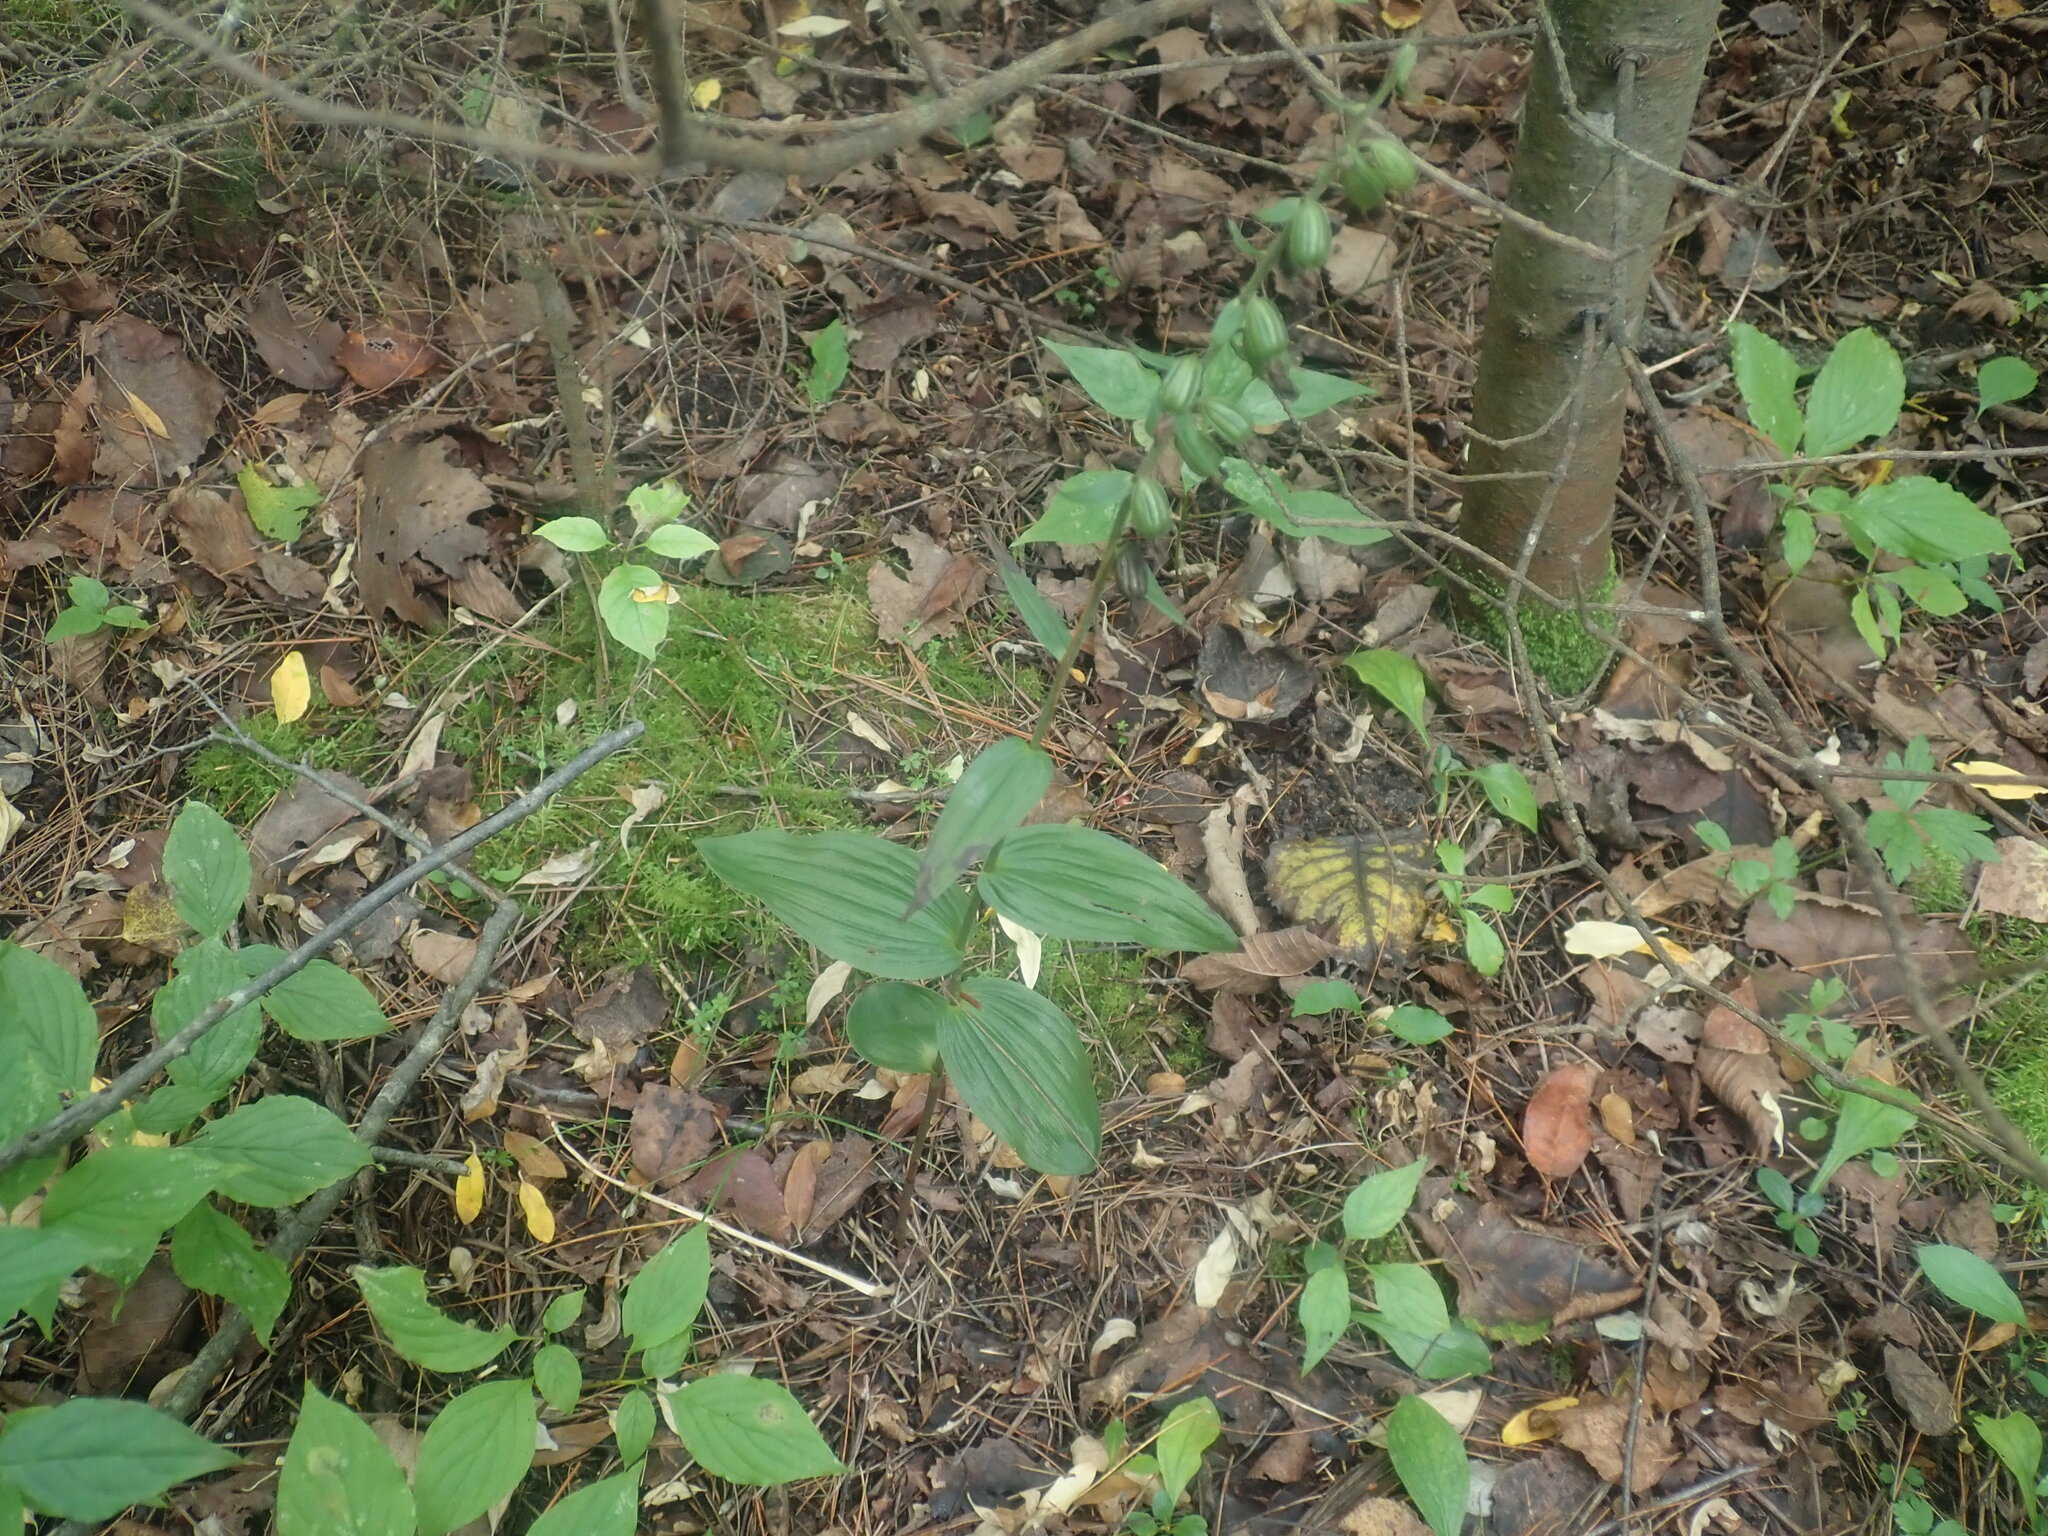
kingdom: Plantae
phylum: Tracheophyta
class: Liliopsida
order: Asparagales
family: Orchidaceae
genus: Epipactis
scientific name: Epipactis helleborine
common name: Broad-leaved helleborine
